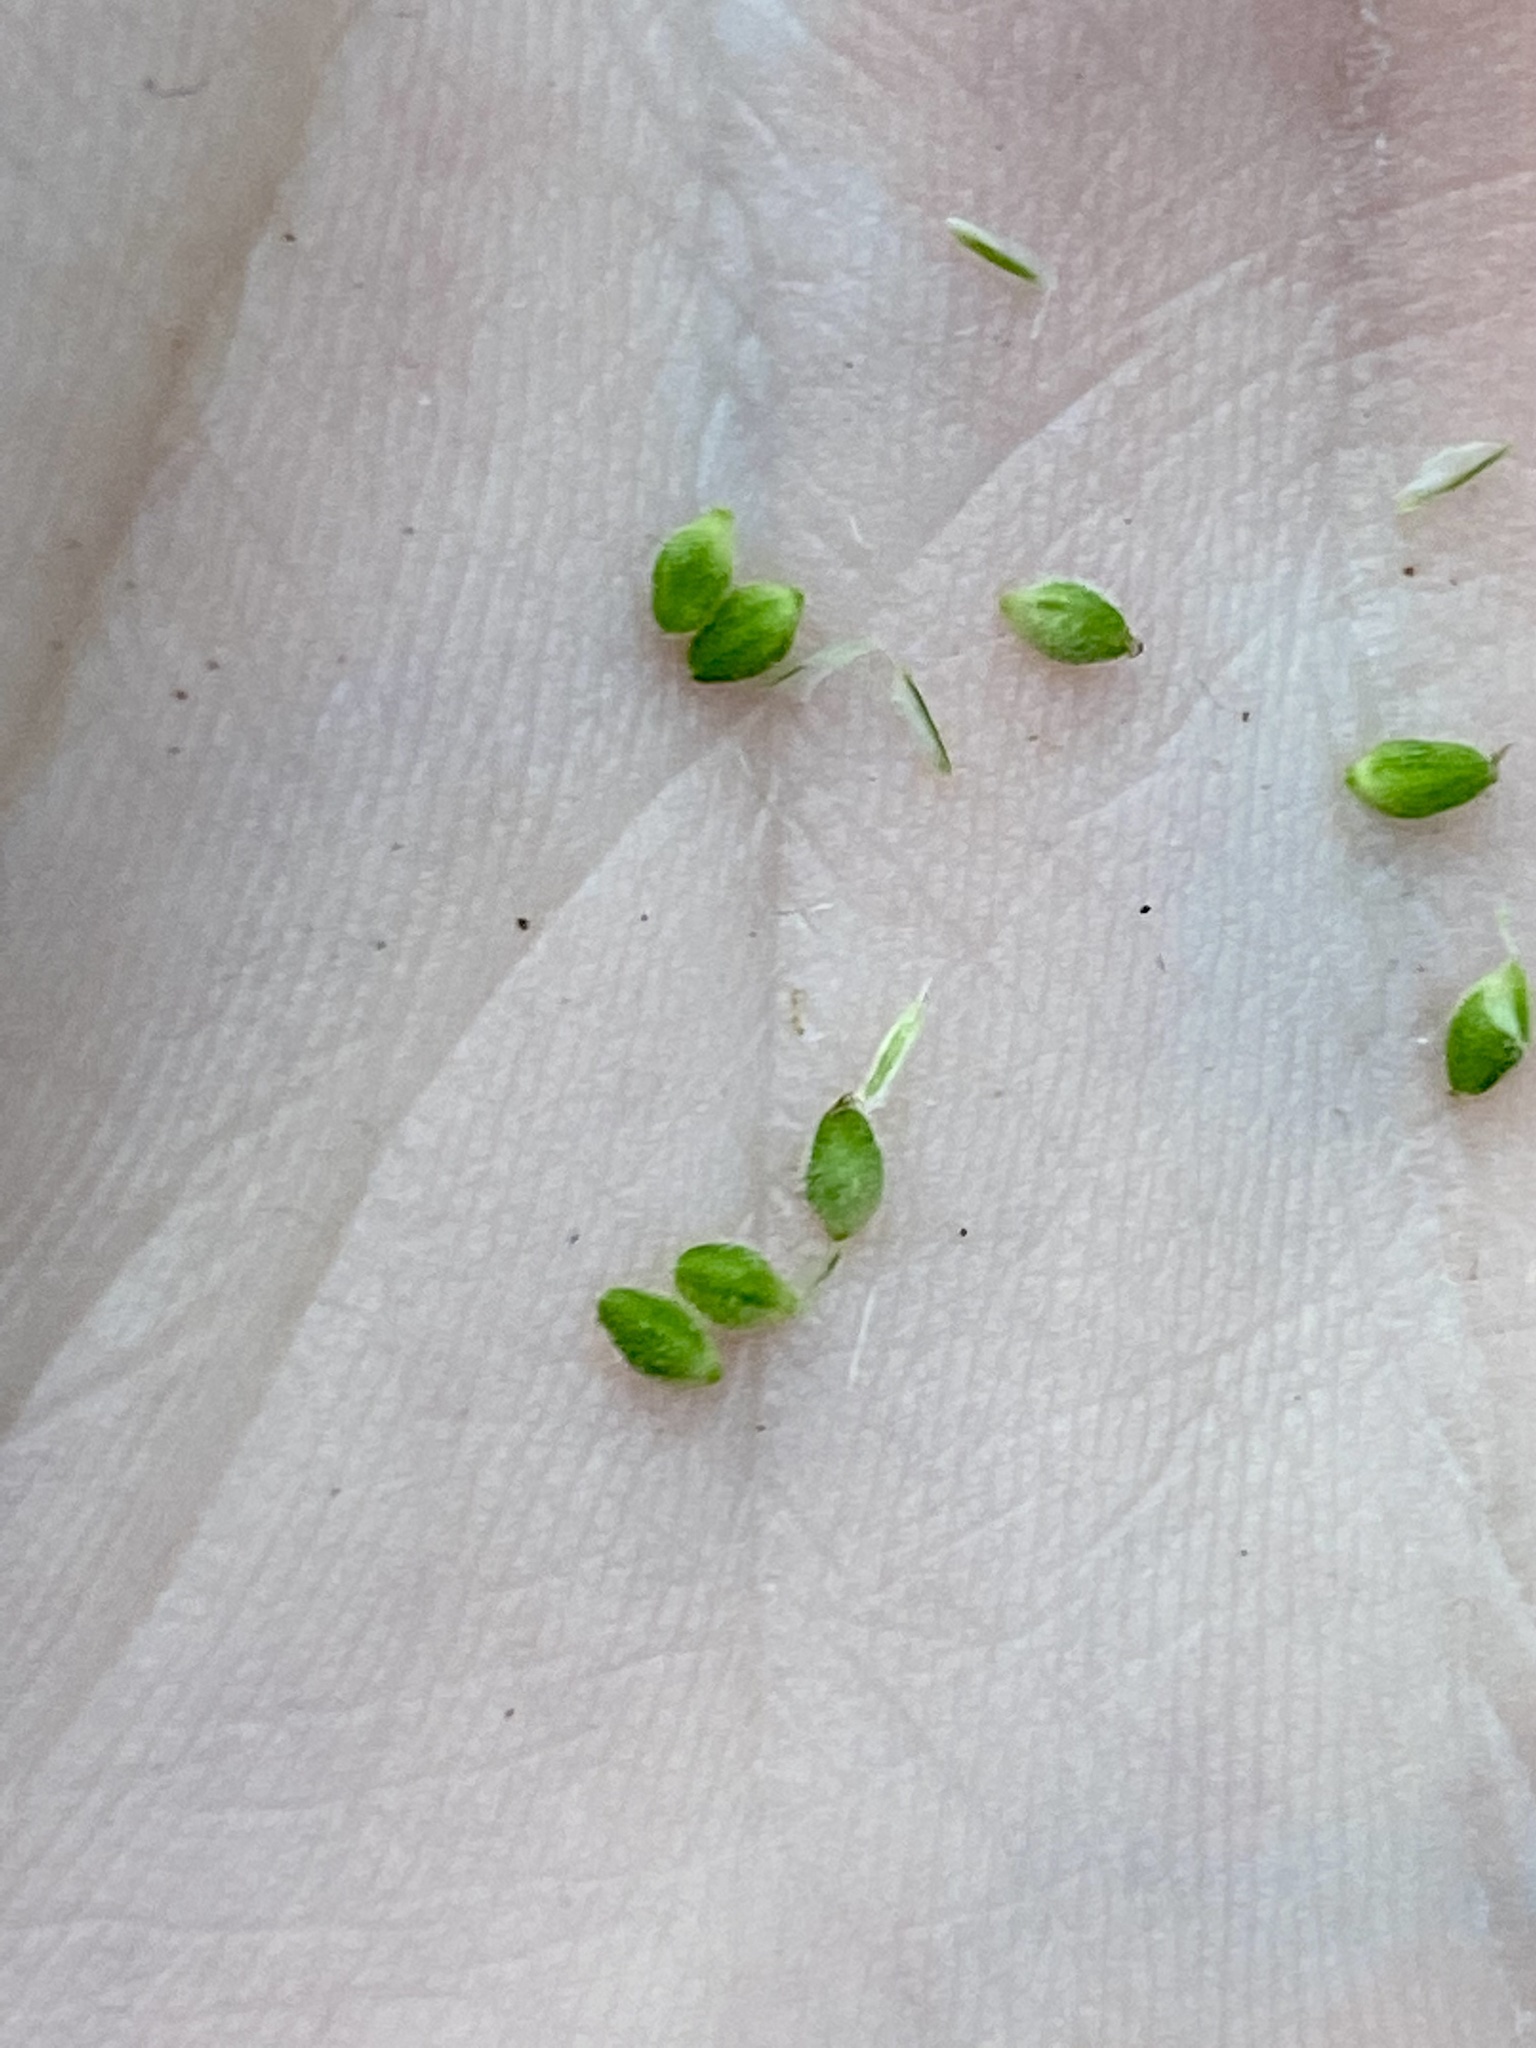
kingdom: Plantae
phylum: Tracheophyta
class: Liliopsida
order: Poales
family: Cyperaceae
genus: Carex
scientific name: Carex swanii
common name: Downy green sedge
